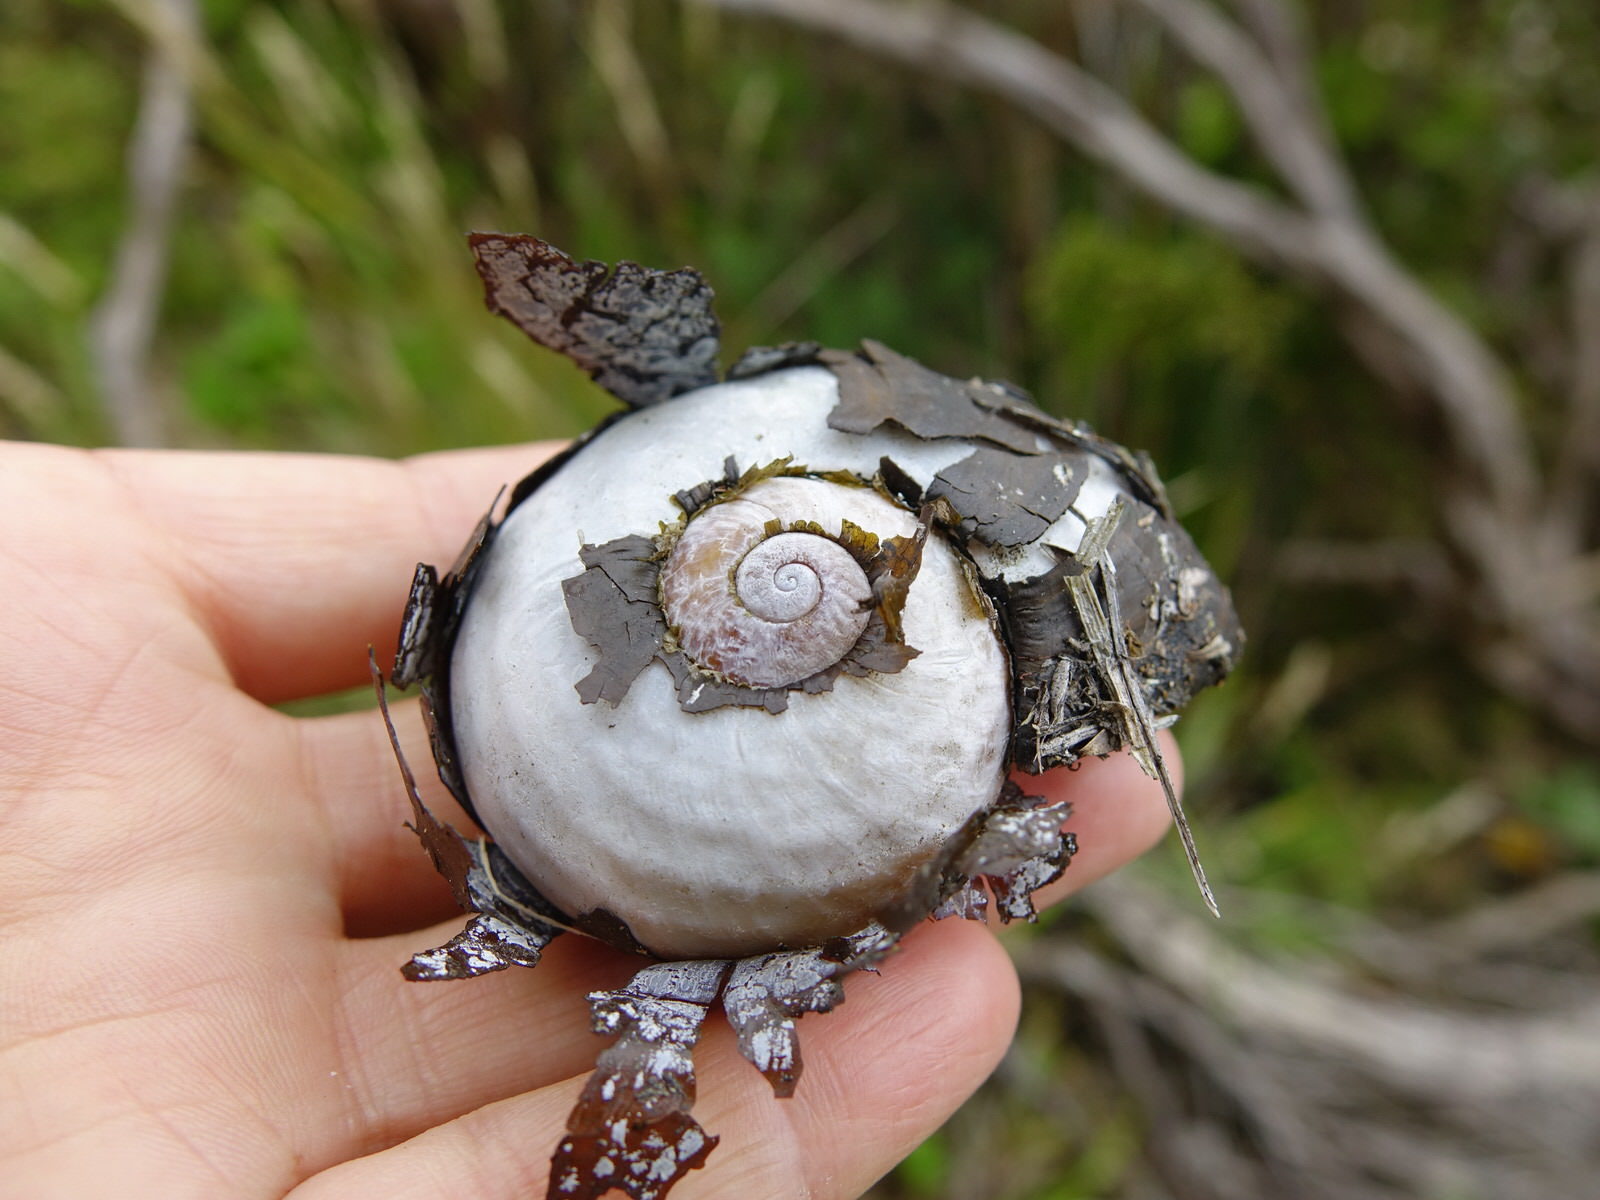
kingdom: Animalia
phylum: Mollusca
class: Gastropoda
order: Stylommatophora
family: Rhytididae
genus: Paryphanta
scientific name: Paryphanta busbyi
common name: Kauri snail
